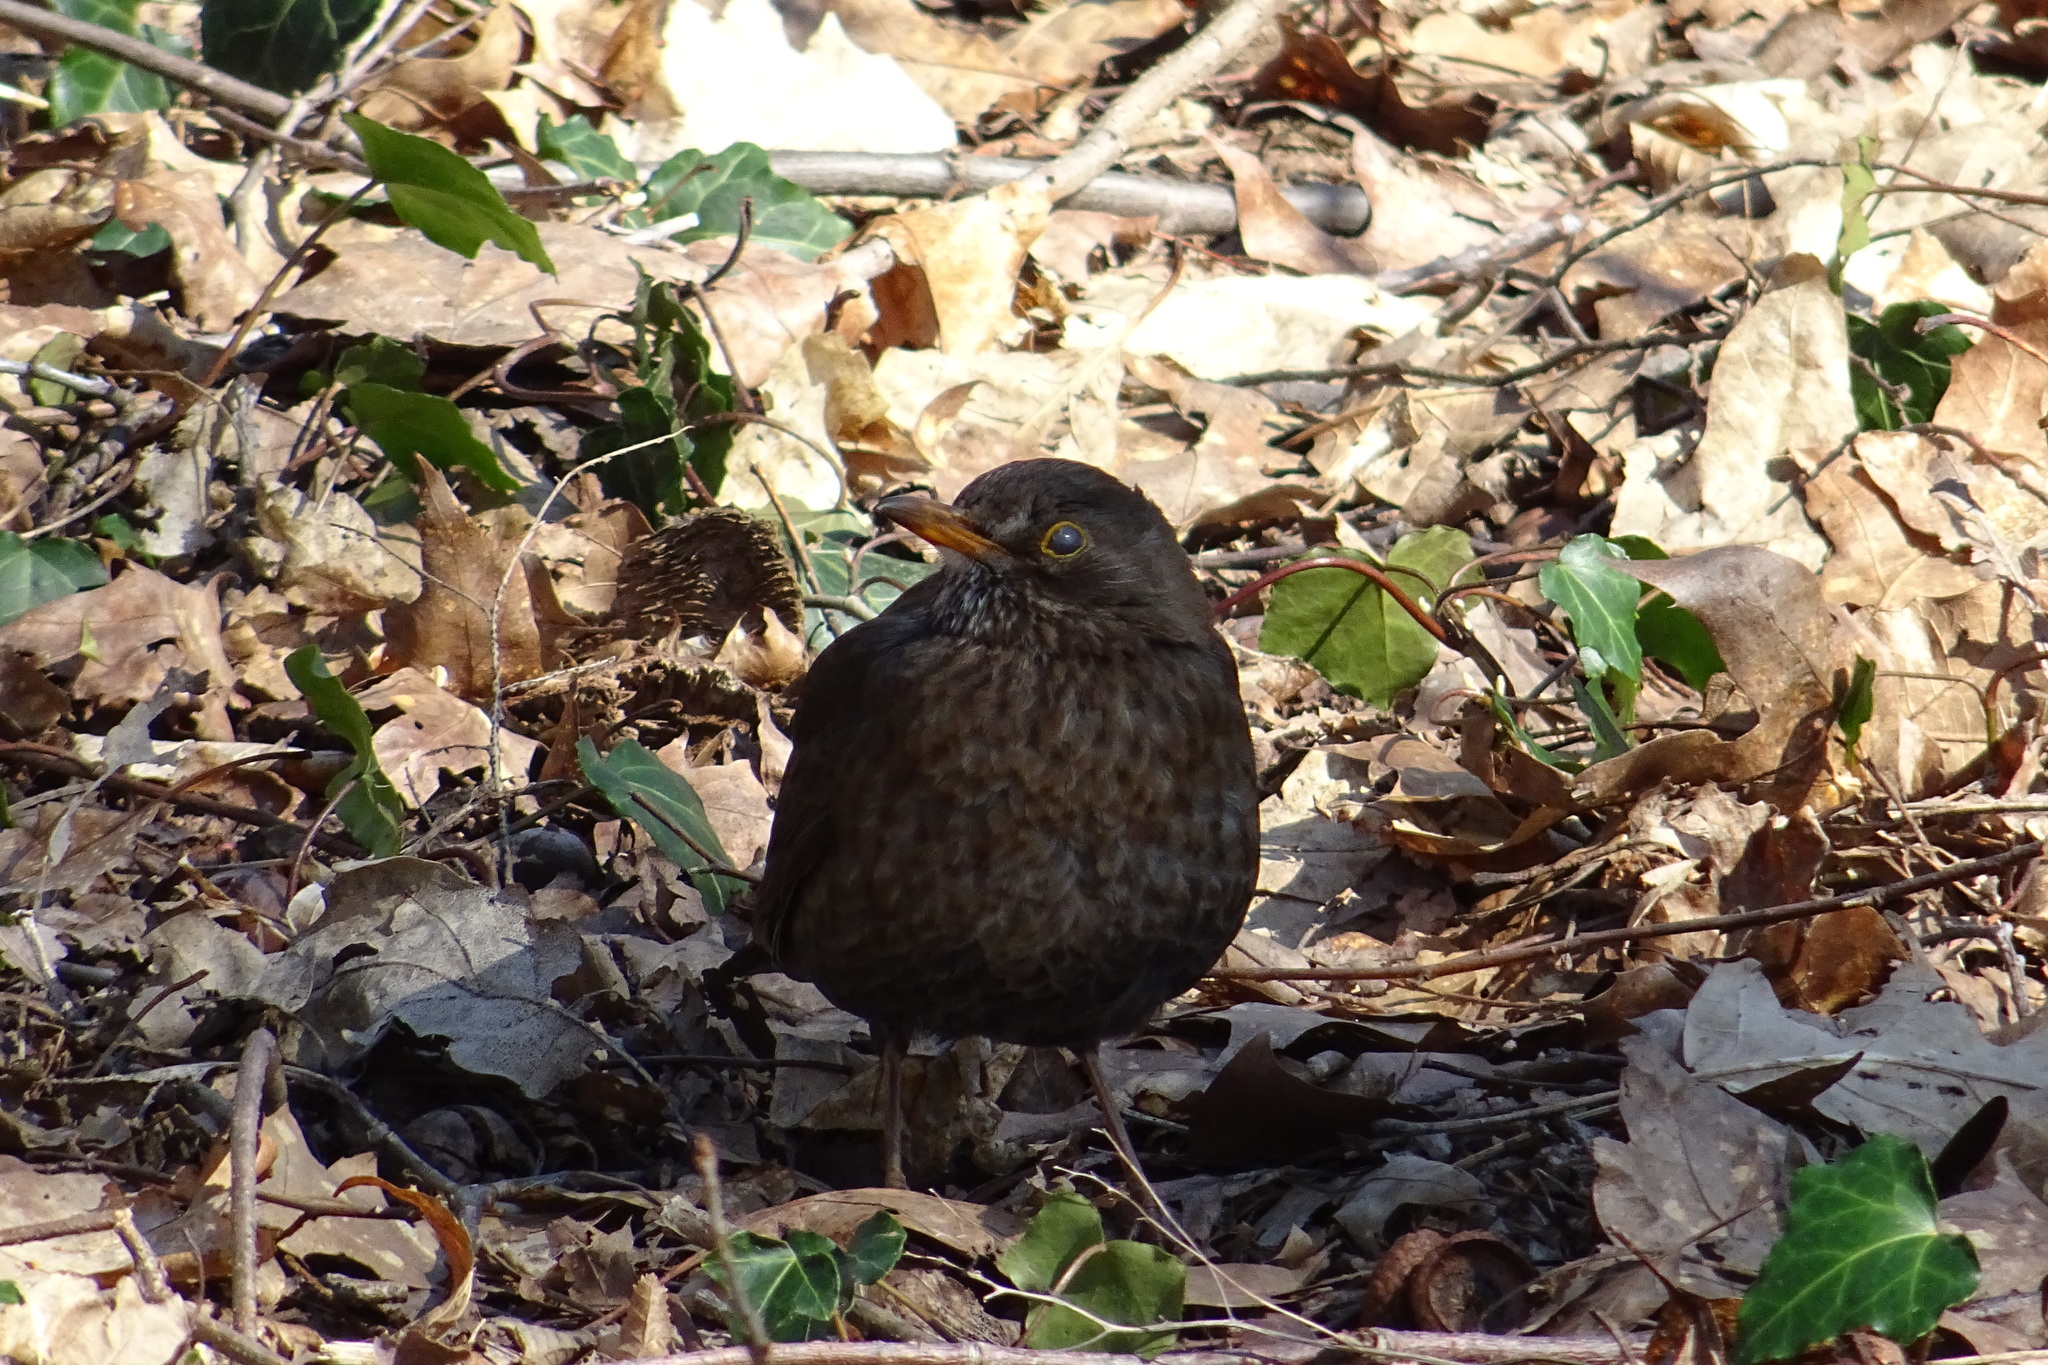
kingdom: Animalia
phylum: Chordata
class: Aves
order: Passeriformes
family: Turdidae
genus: Turdus
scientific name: Turdus merula
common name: Common blackbird
